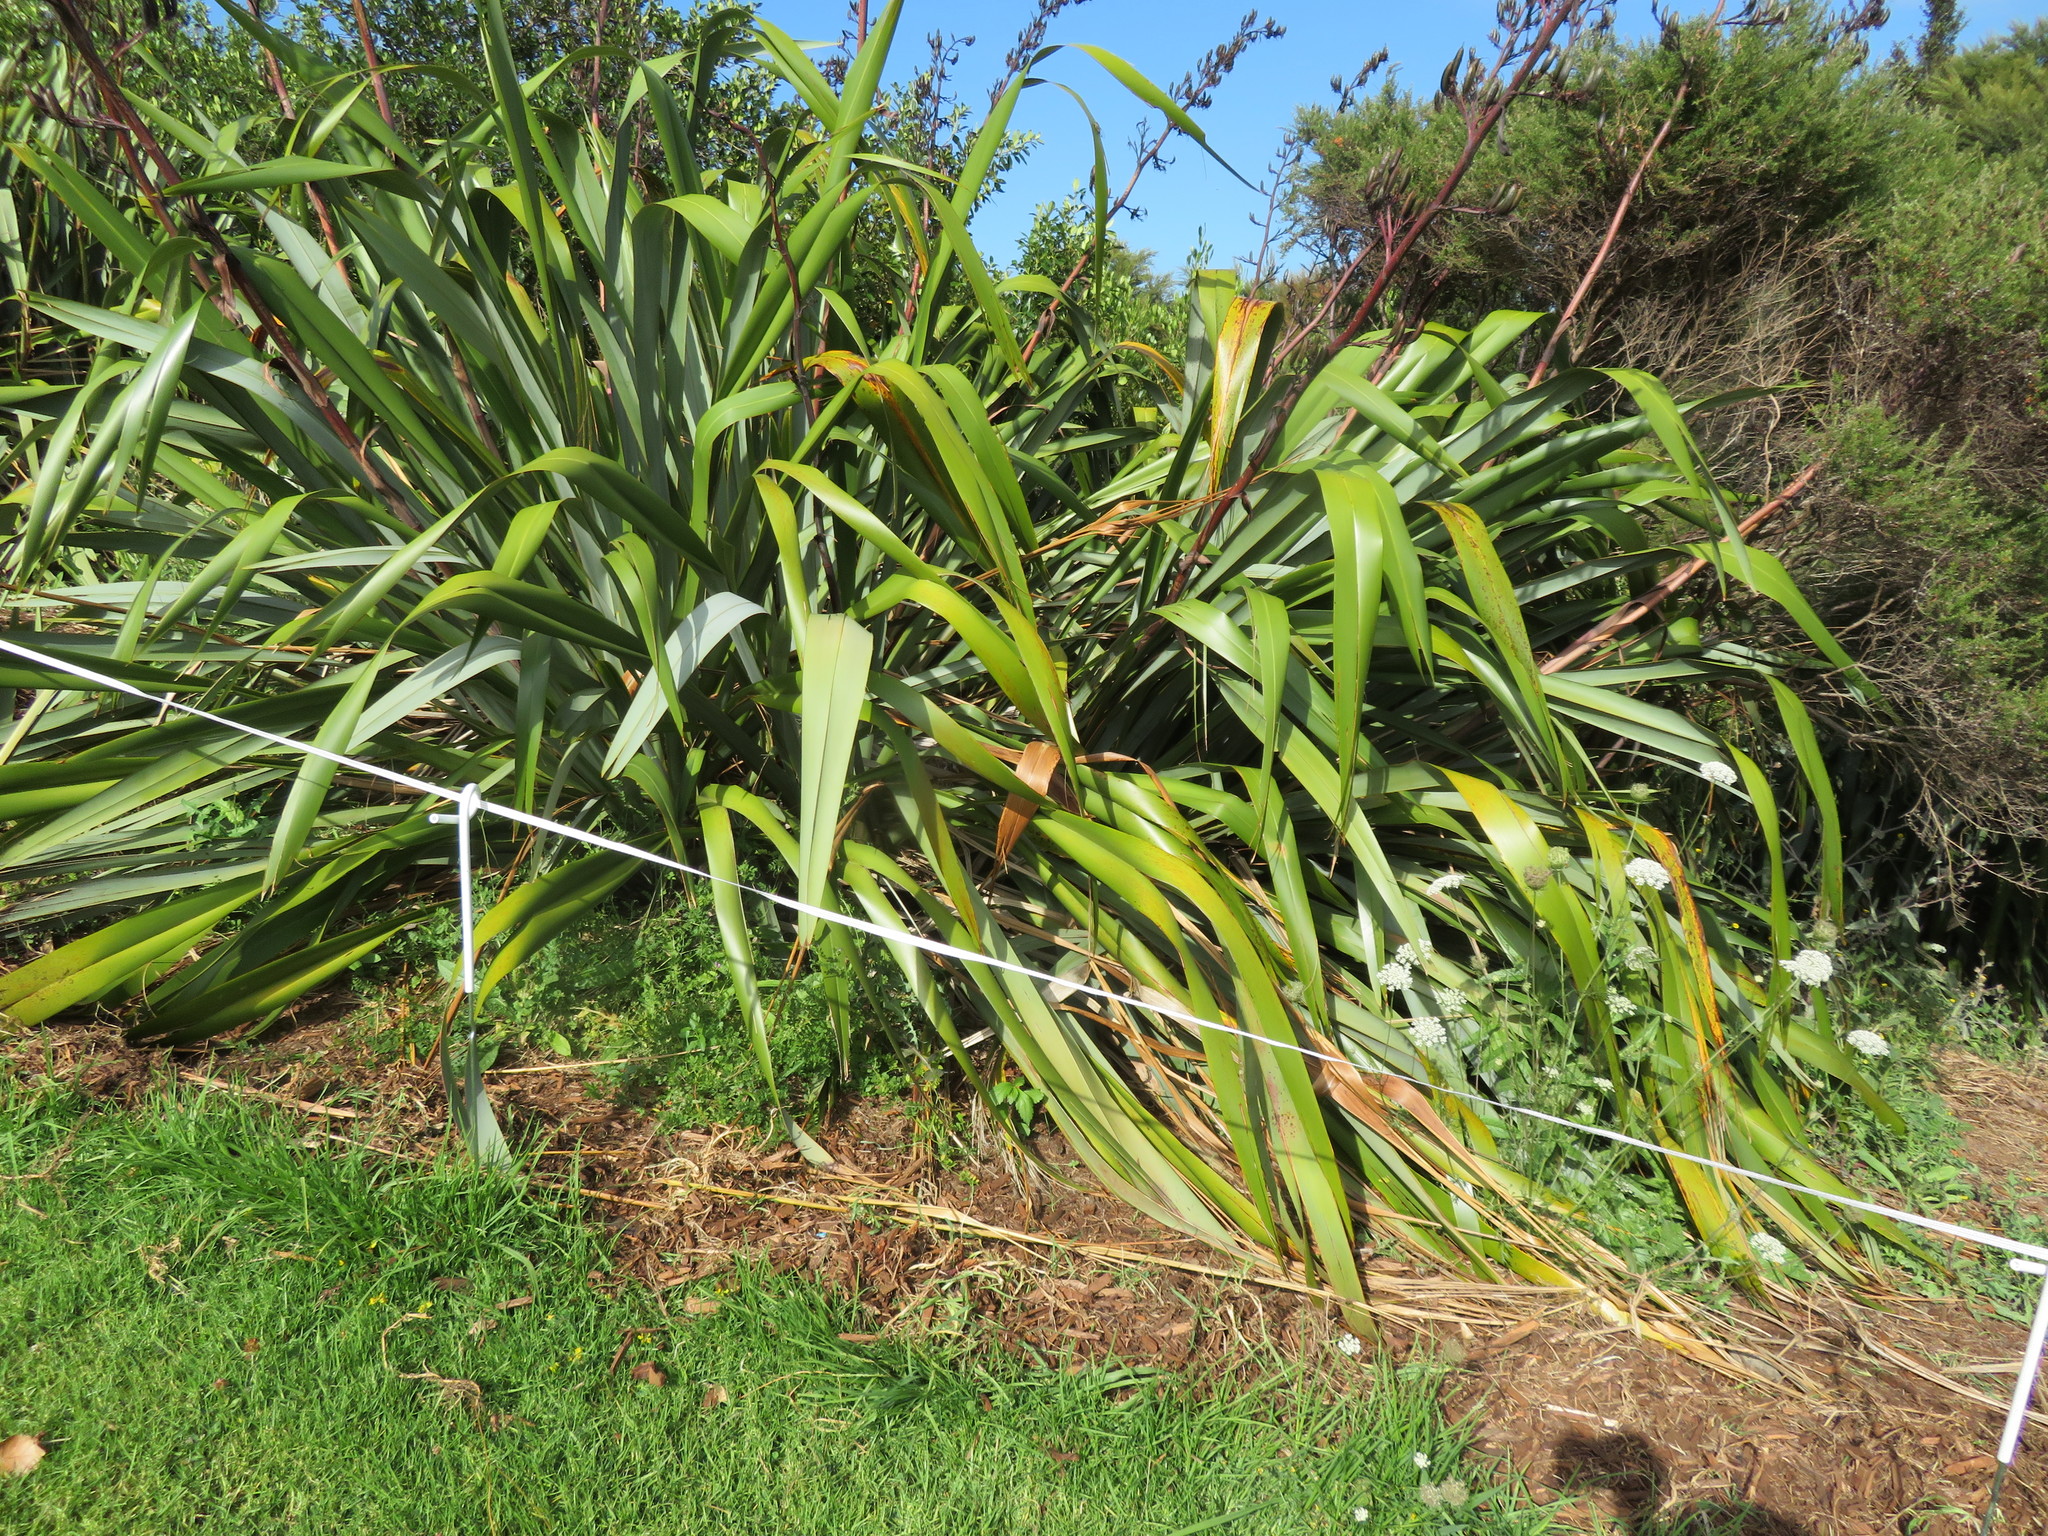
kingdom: Plantae
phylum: Tracheophyta
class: Liliopsida
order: Poales
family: Poaceae
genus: Cenchrus
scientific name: Cenchrus clandestinus
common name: Kikuyugrass
